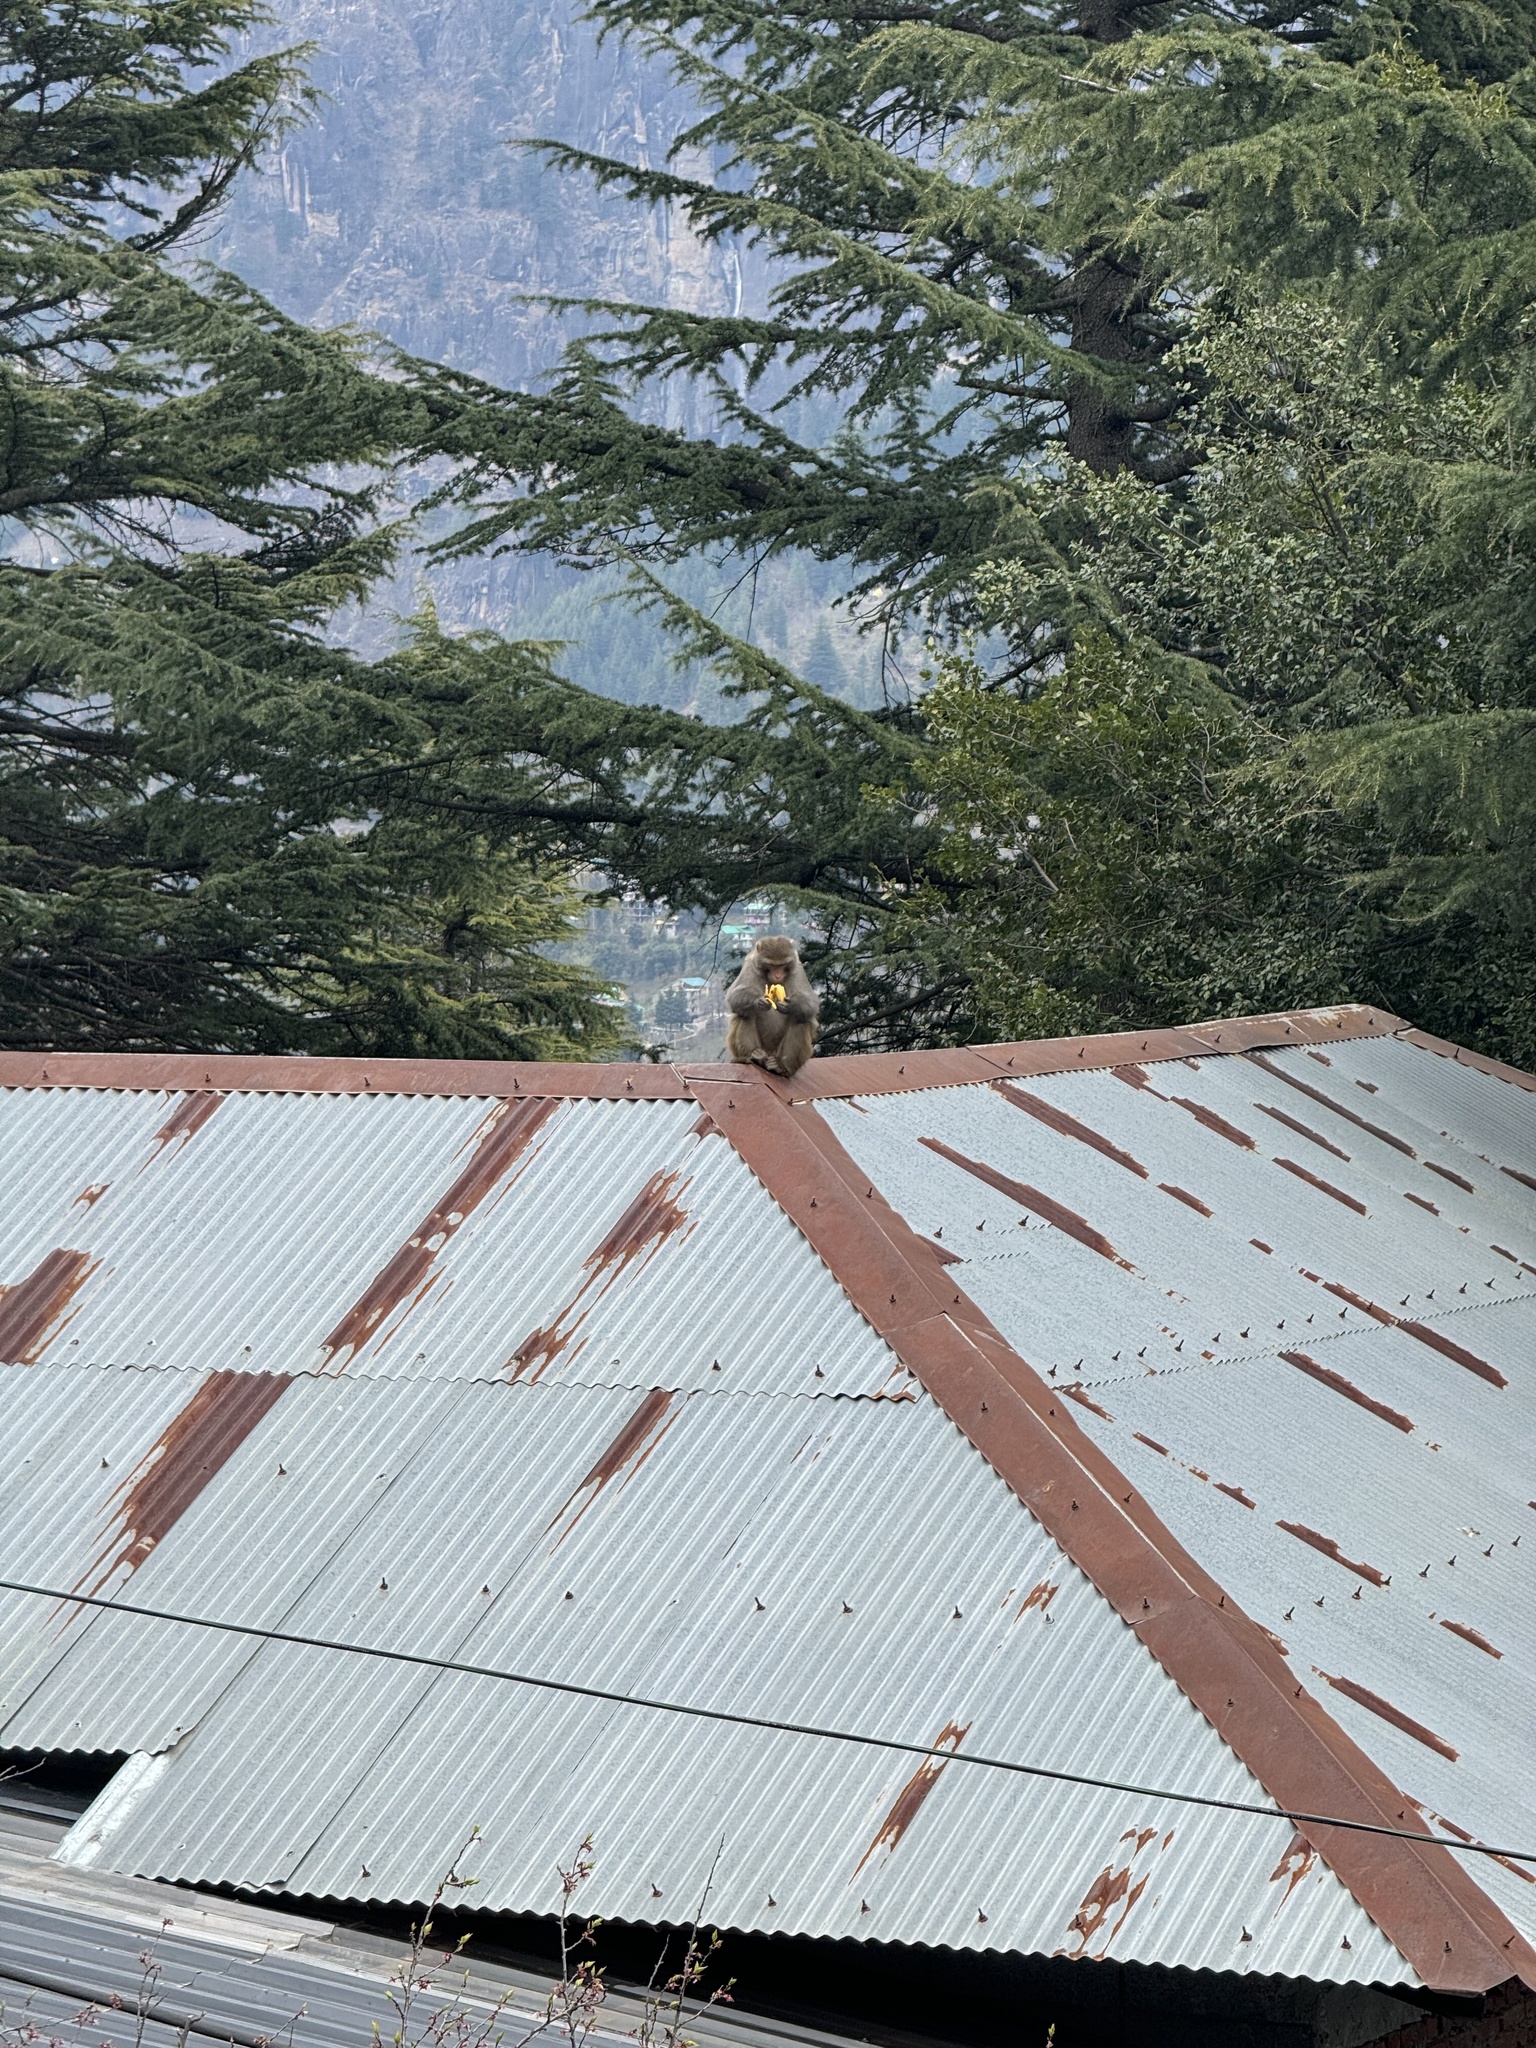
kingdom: Animalia
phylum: Chordata
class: Mammalia
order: Primates
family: Cercopithecidae
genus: Macaca
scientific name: Macaca mulatta
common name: Rhesus monkey
